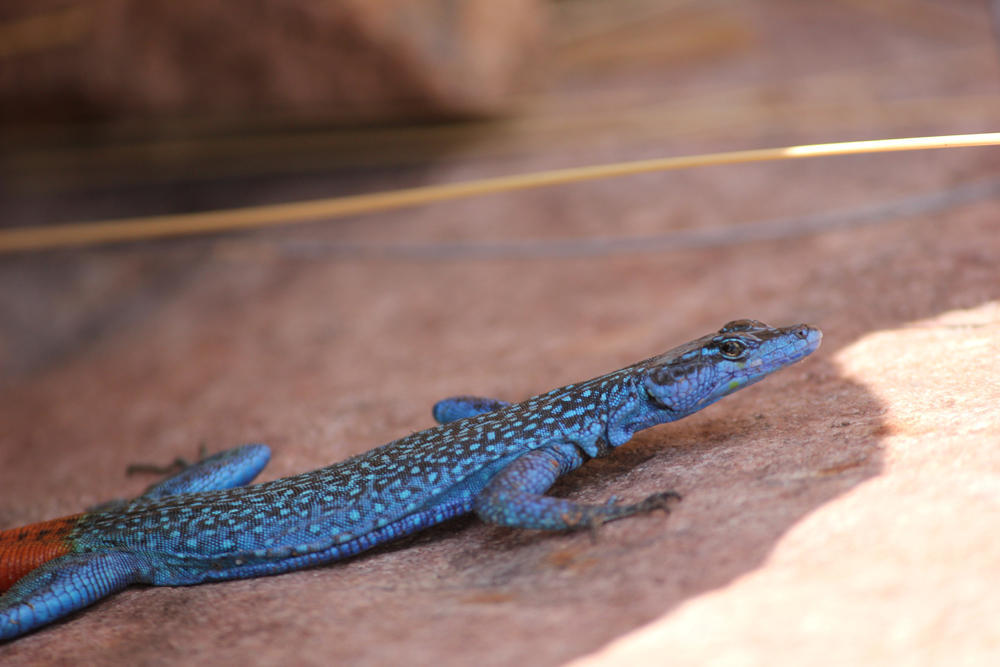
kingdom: Animalia
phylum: Chordata
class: Squamata
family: Cordylidae
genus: Platysaurus
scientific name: Platysaurus relictus
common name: Soutpansberg flat lizard
